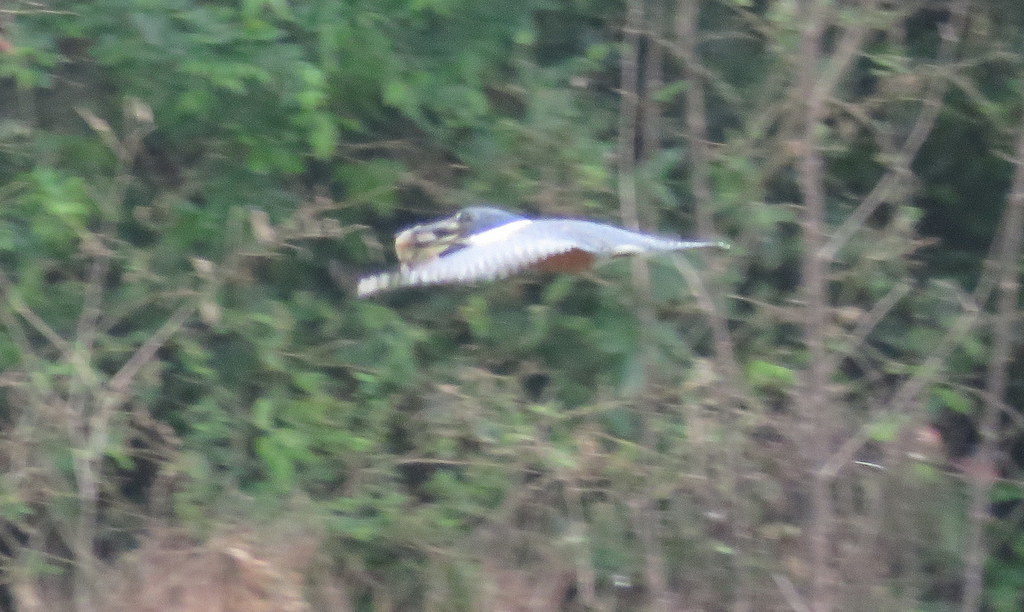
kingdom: Animalia
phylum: Chordata
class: Aves
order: Coraciiformes
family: Alcedinidae
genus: Megaceryle
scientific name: Megaceryle torquata
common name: Ringed kingfisher
